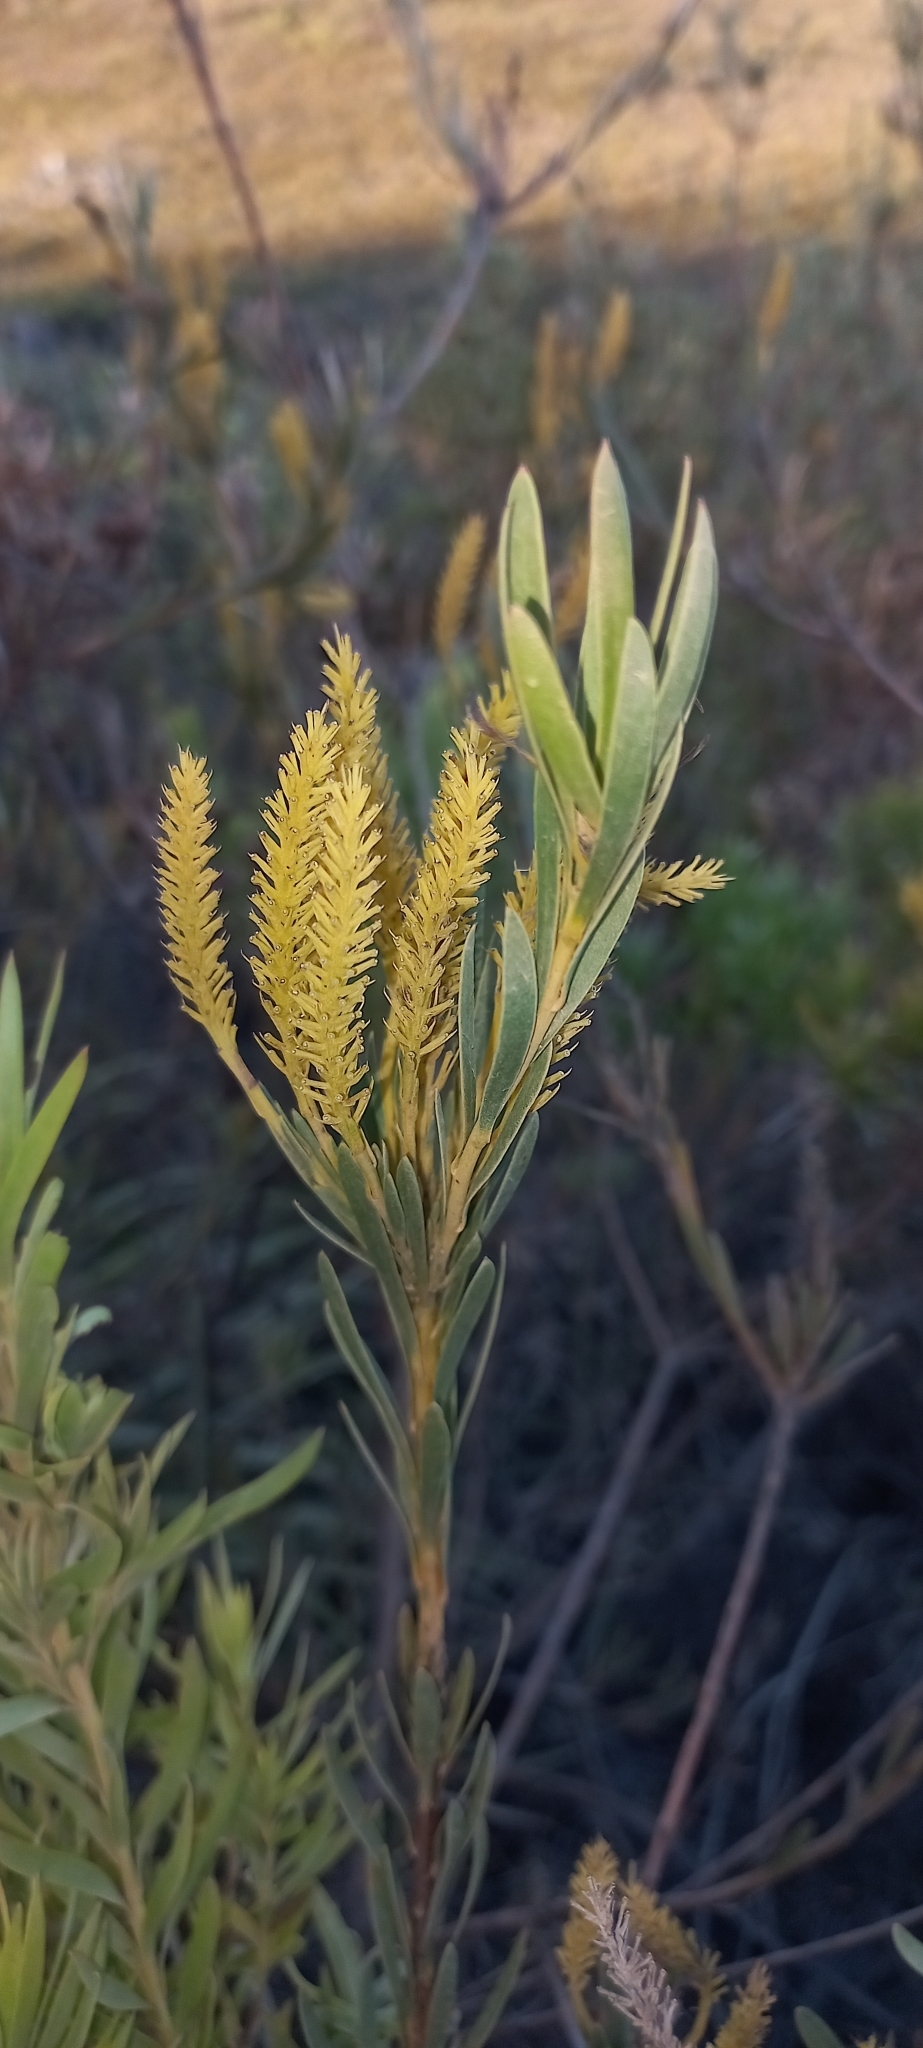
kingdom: Plantae
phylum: Tracheophyta
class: Magnoliopsida
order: Proteales
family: Proteaceae
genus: Aulax
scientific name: Aulax umbellata
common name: Broad-leaf featherbush
